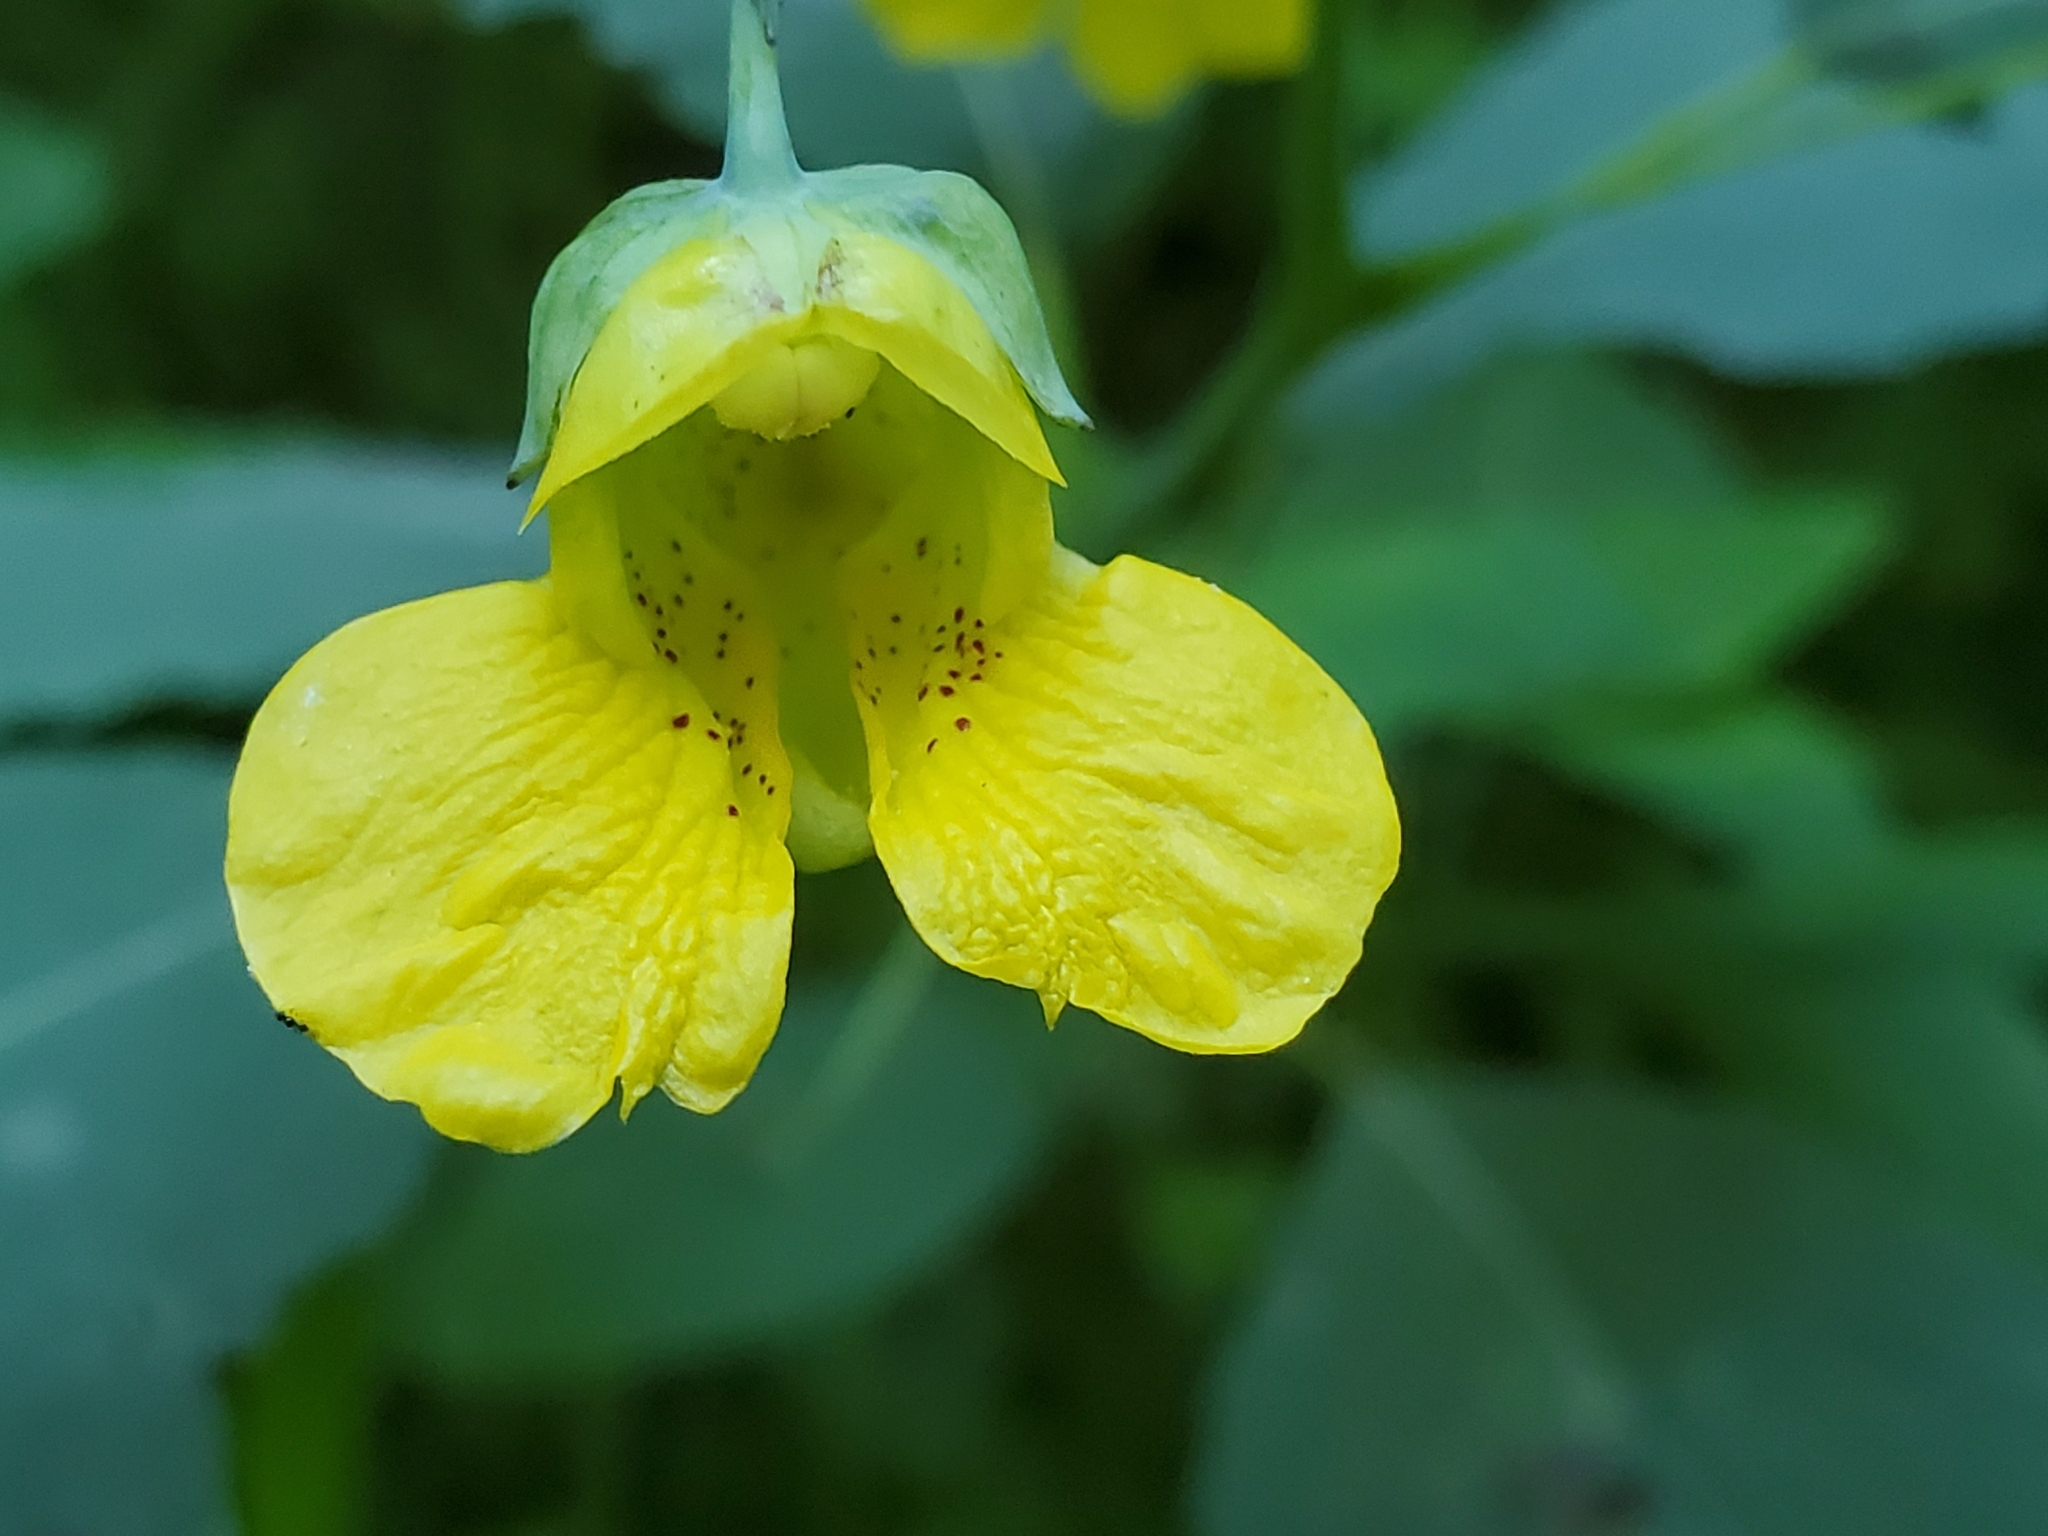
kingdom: Plantae
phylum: Tracheophyta
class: Magnoliopsida
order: Ericales
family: Balsaminaceae
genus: Impatiens
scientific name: Impatiens pallida
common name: Pale snapweed
